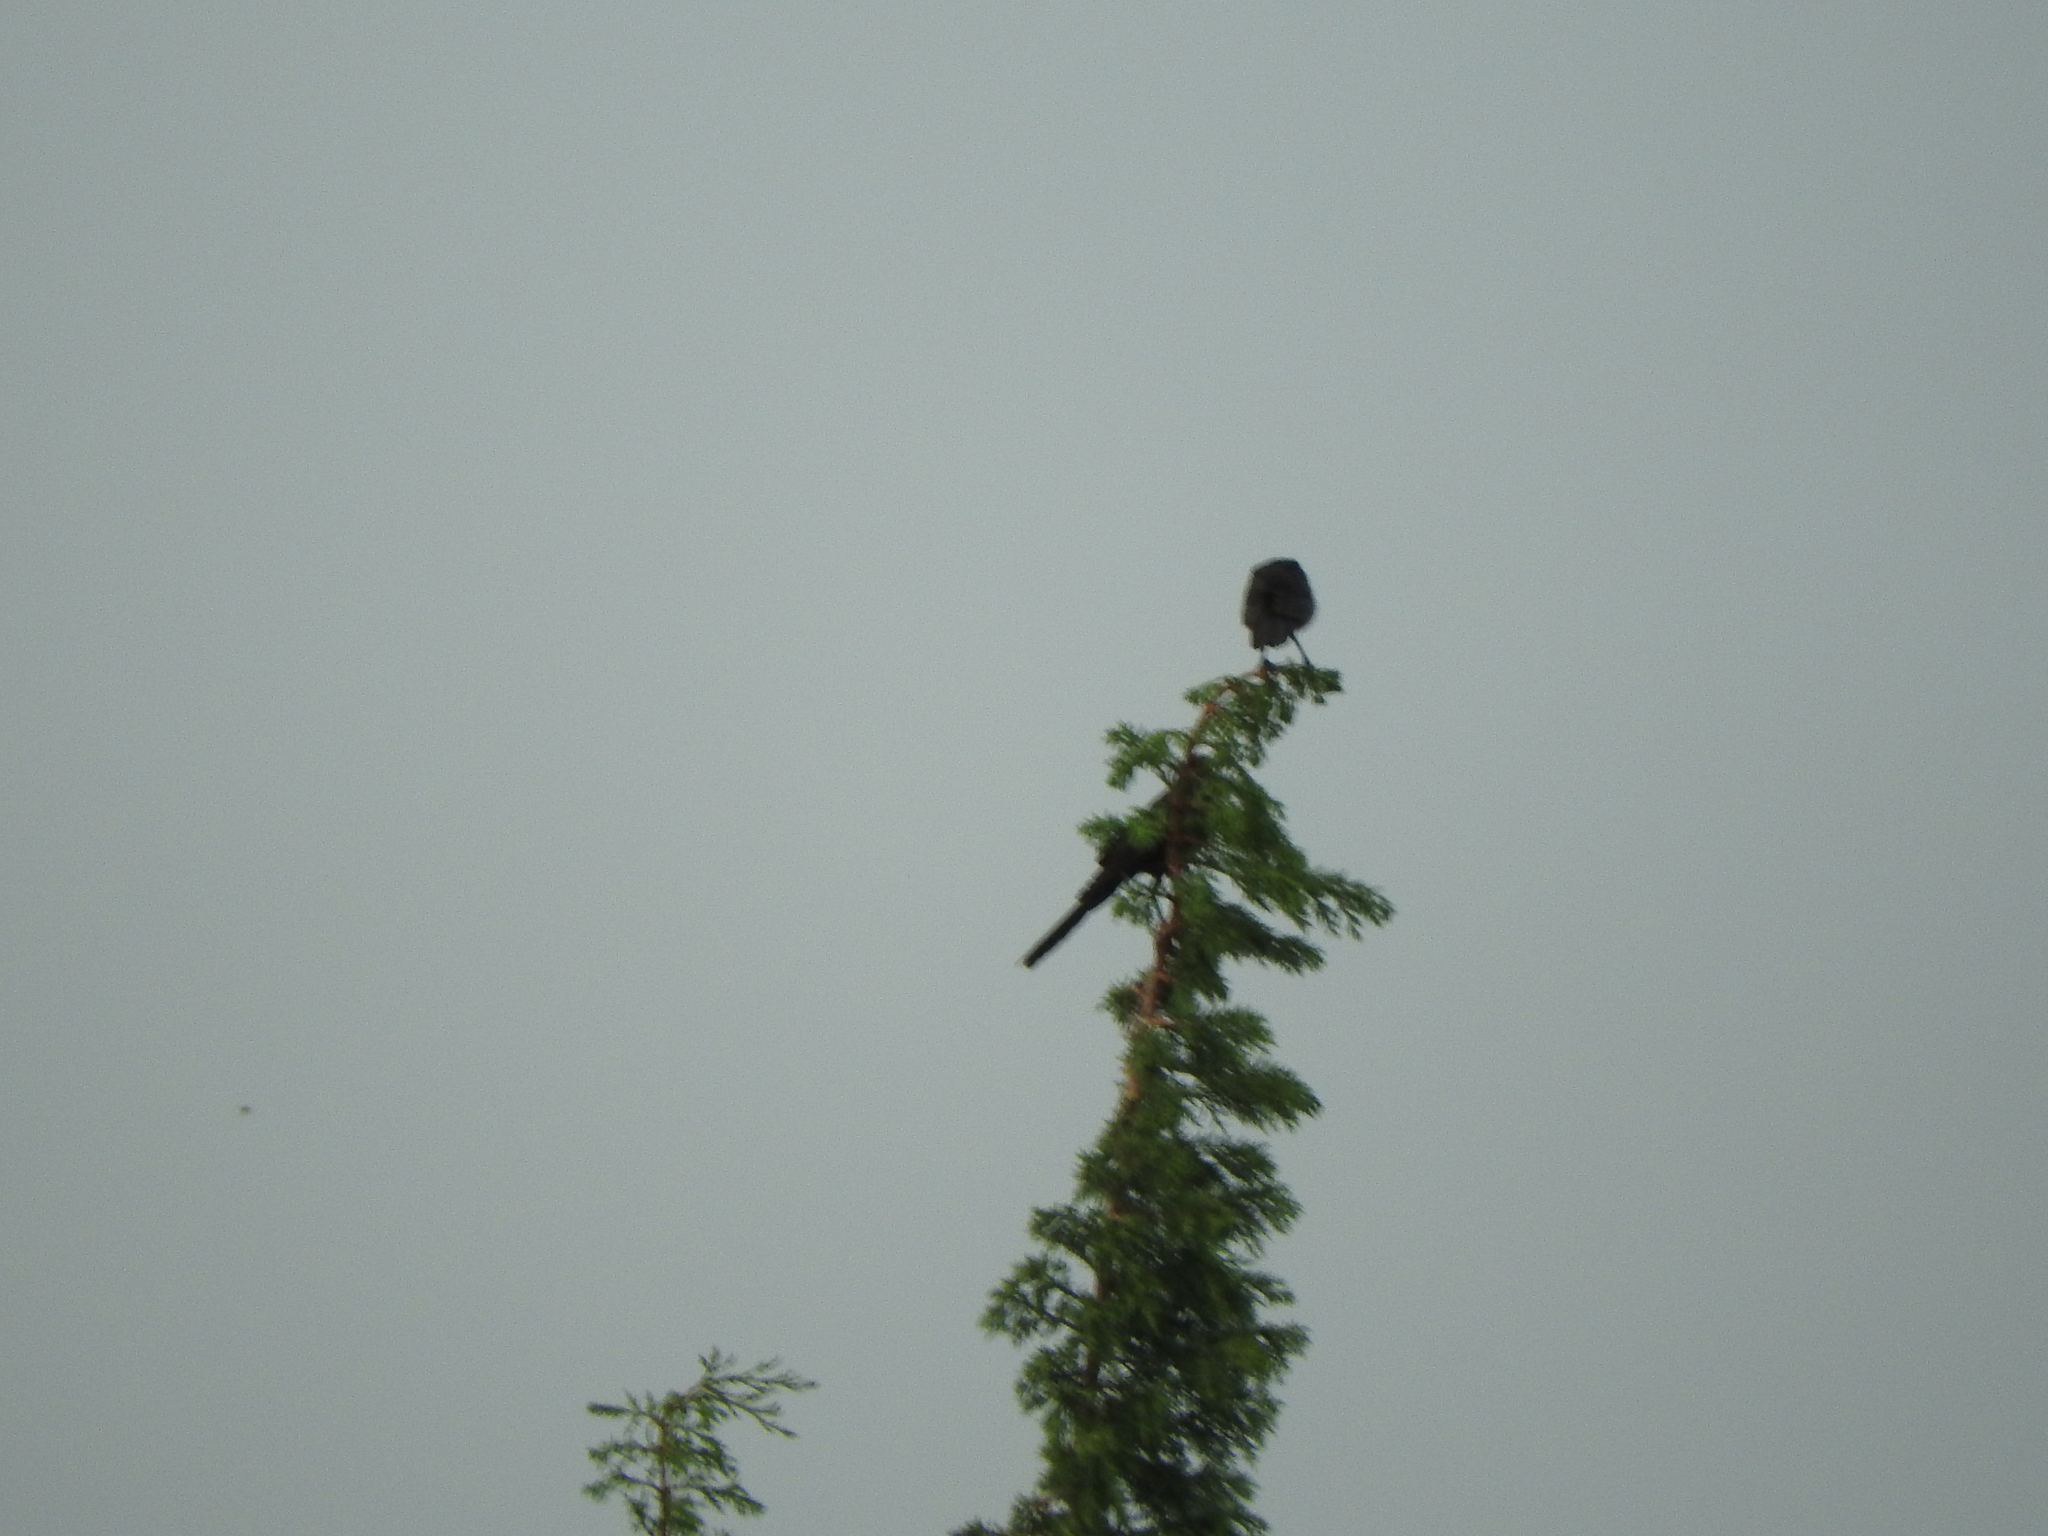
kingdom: Animalia
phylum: Chordata
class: Aves
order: Passeriformes
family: Icteridae
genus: Quiscalus
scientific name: Quiscalus mexicanus
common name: Great-tailed grackle
